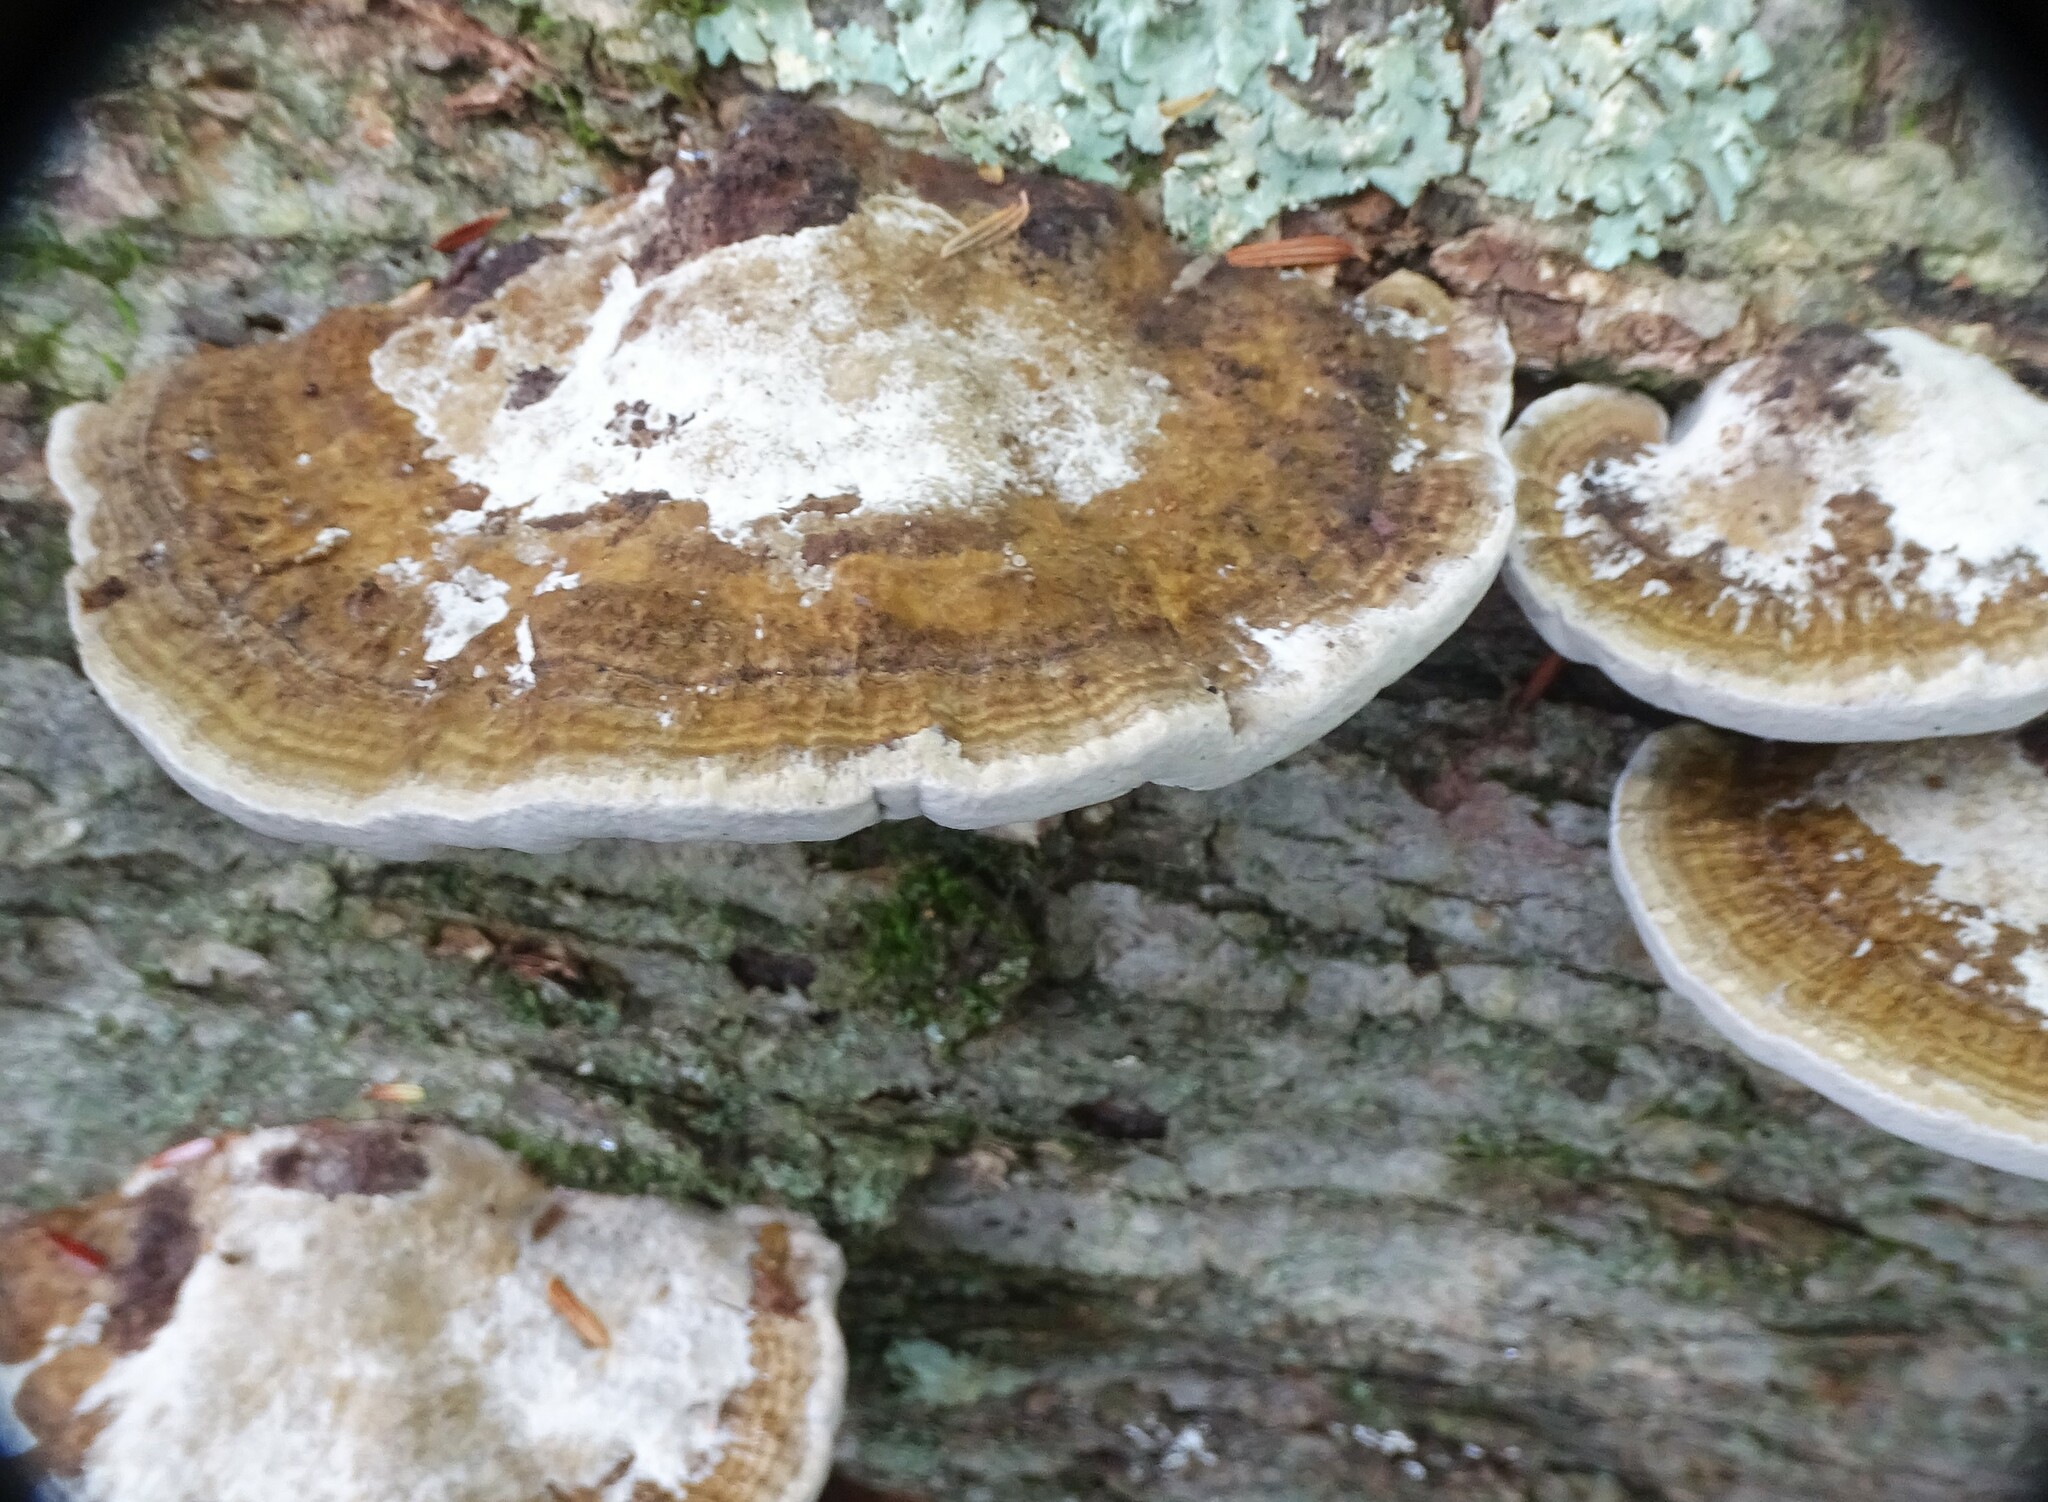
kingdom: Fungi
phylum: Basidiomycota
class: Agaricomycetes
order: Polyporales
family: Polyporaceae
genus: Daedaleopsis
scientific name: Daedaleopsis confragosa
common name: Blushing bracket
